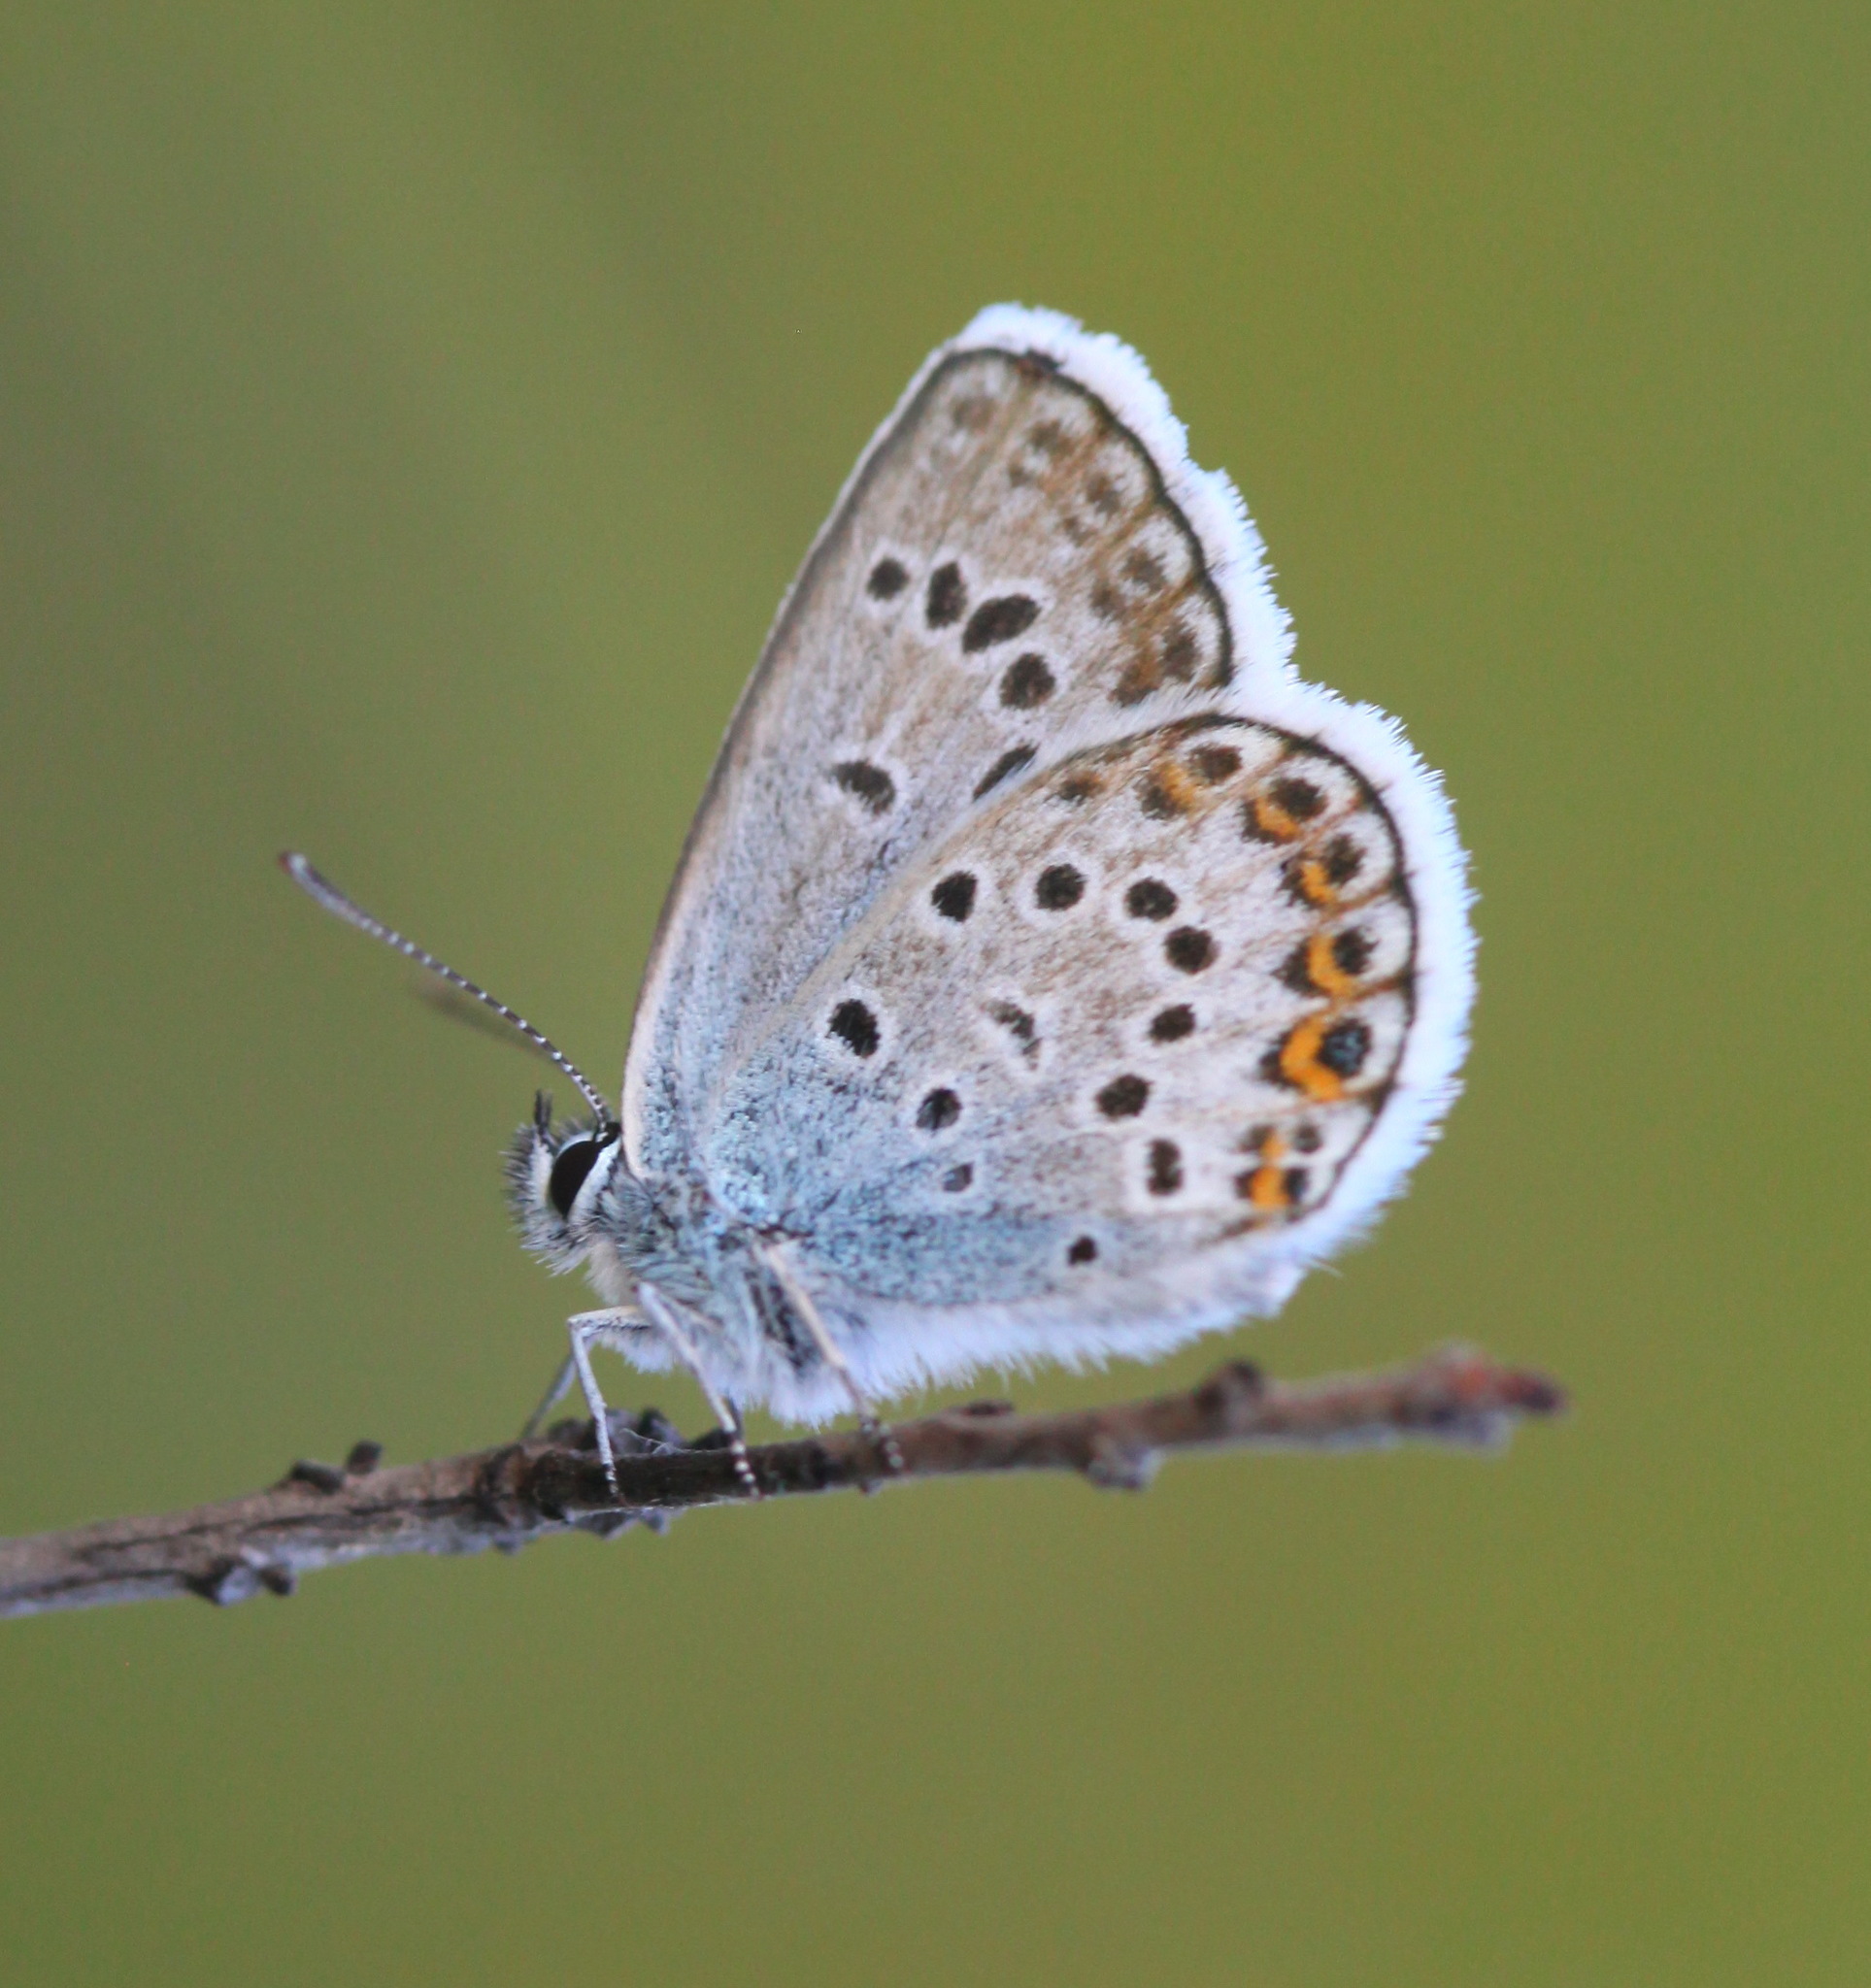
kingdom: Animalia
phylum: Arthropoda
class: Insecta
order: Lepidoptera
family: Lycaenidae
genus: Plebejus
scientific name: Plebejus argus
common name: Silver-studded blue
